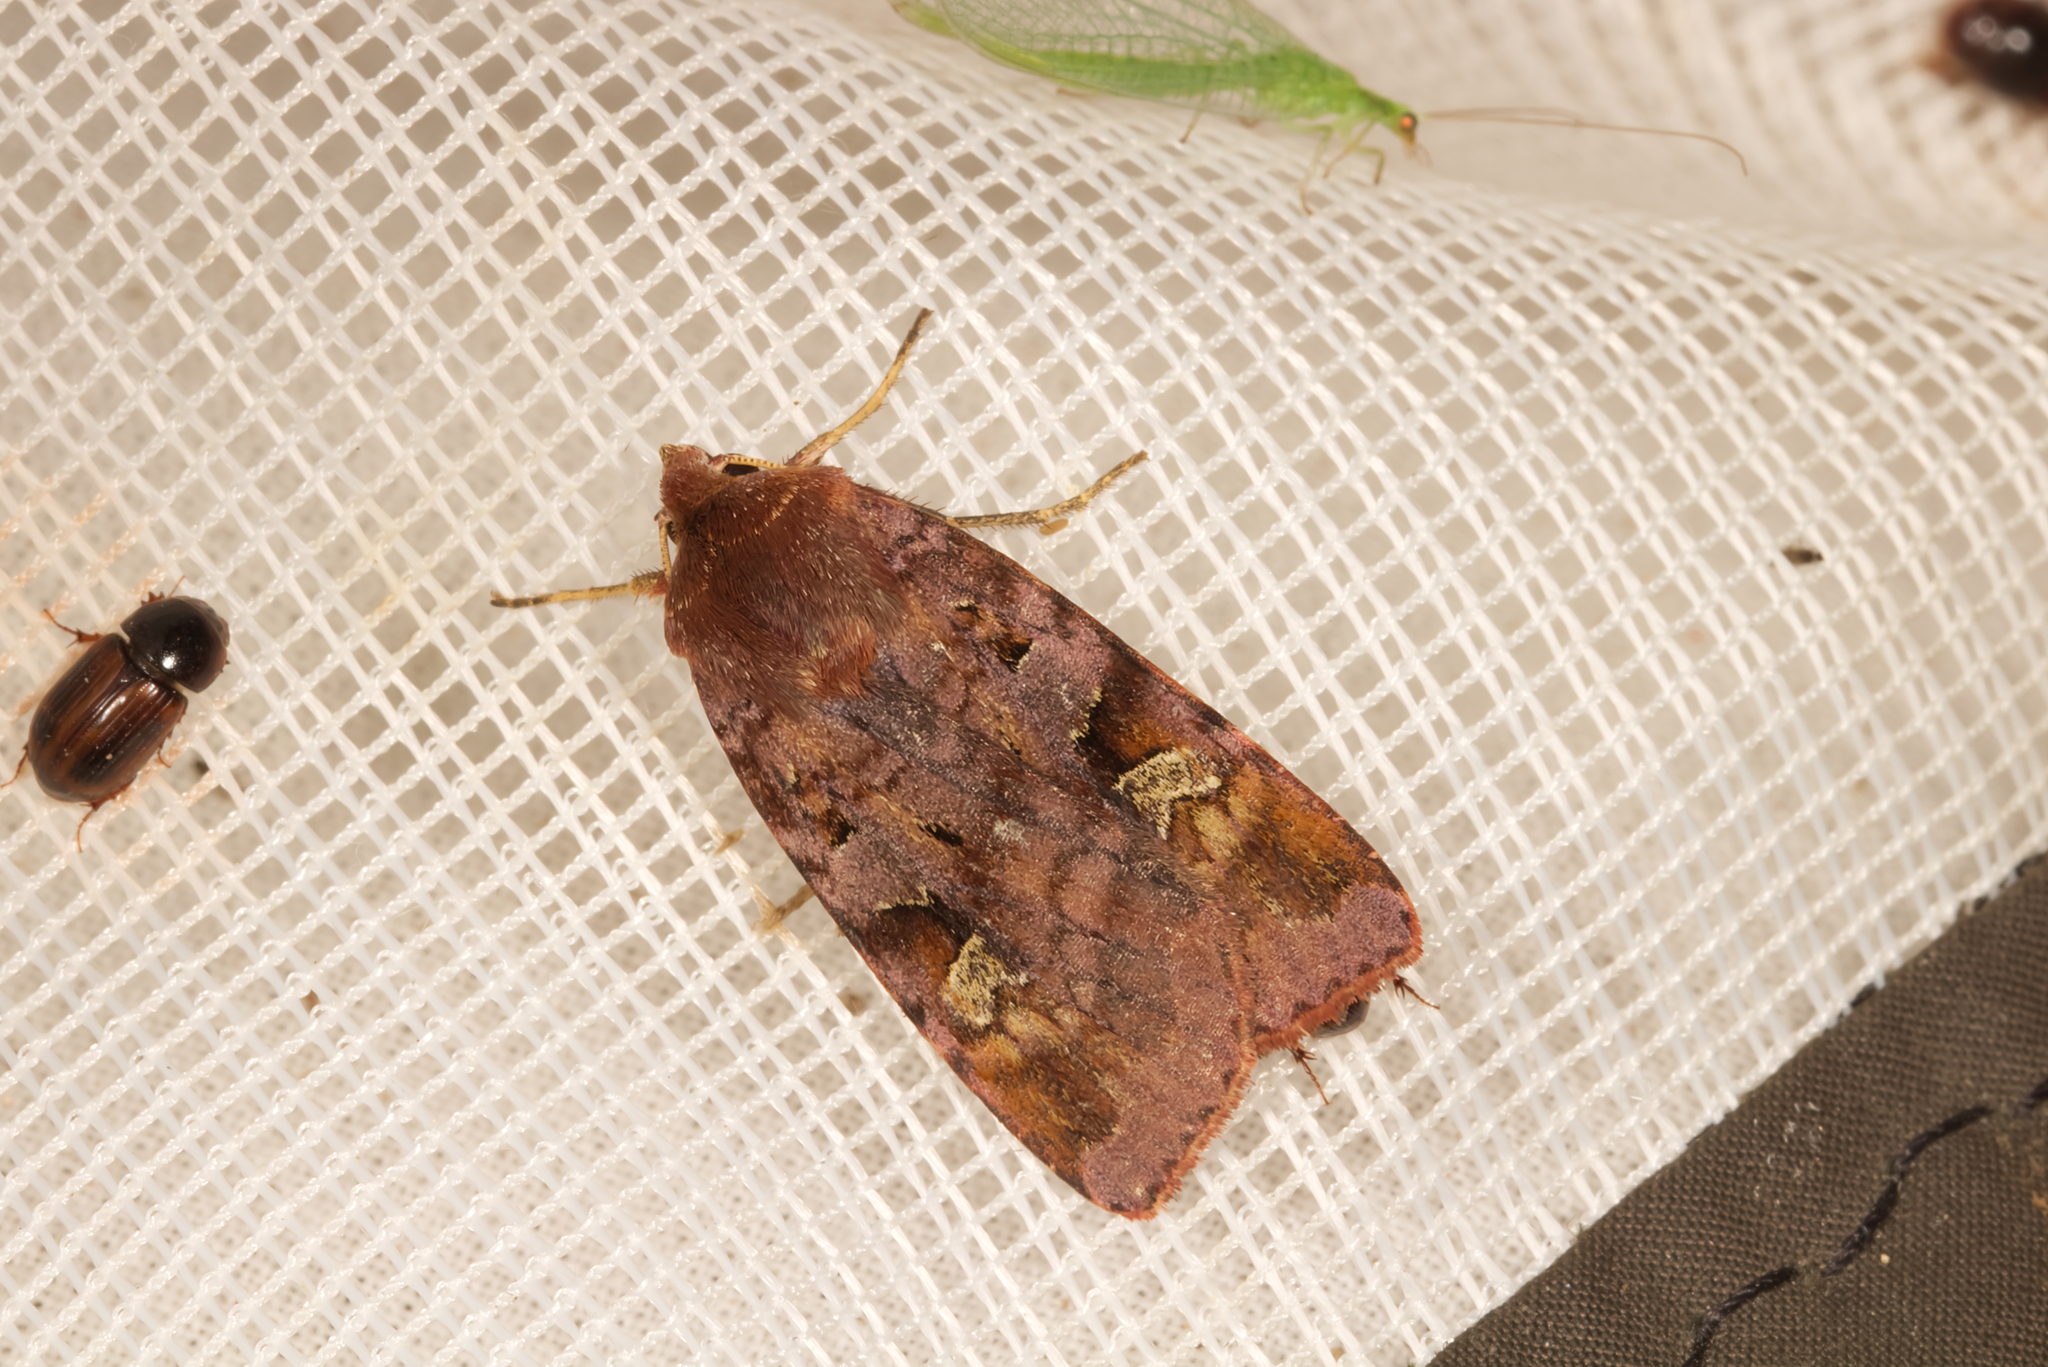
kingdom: Animalia
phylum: Arthropoda
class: Insecta
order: Lepidoptera
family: Noctuidae
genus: Diarsia
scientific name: Diarsia brunnea
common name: Purple clay
